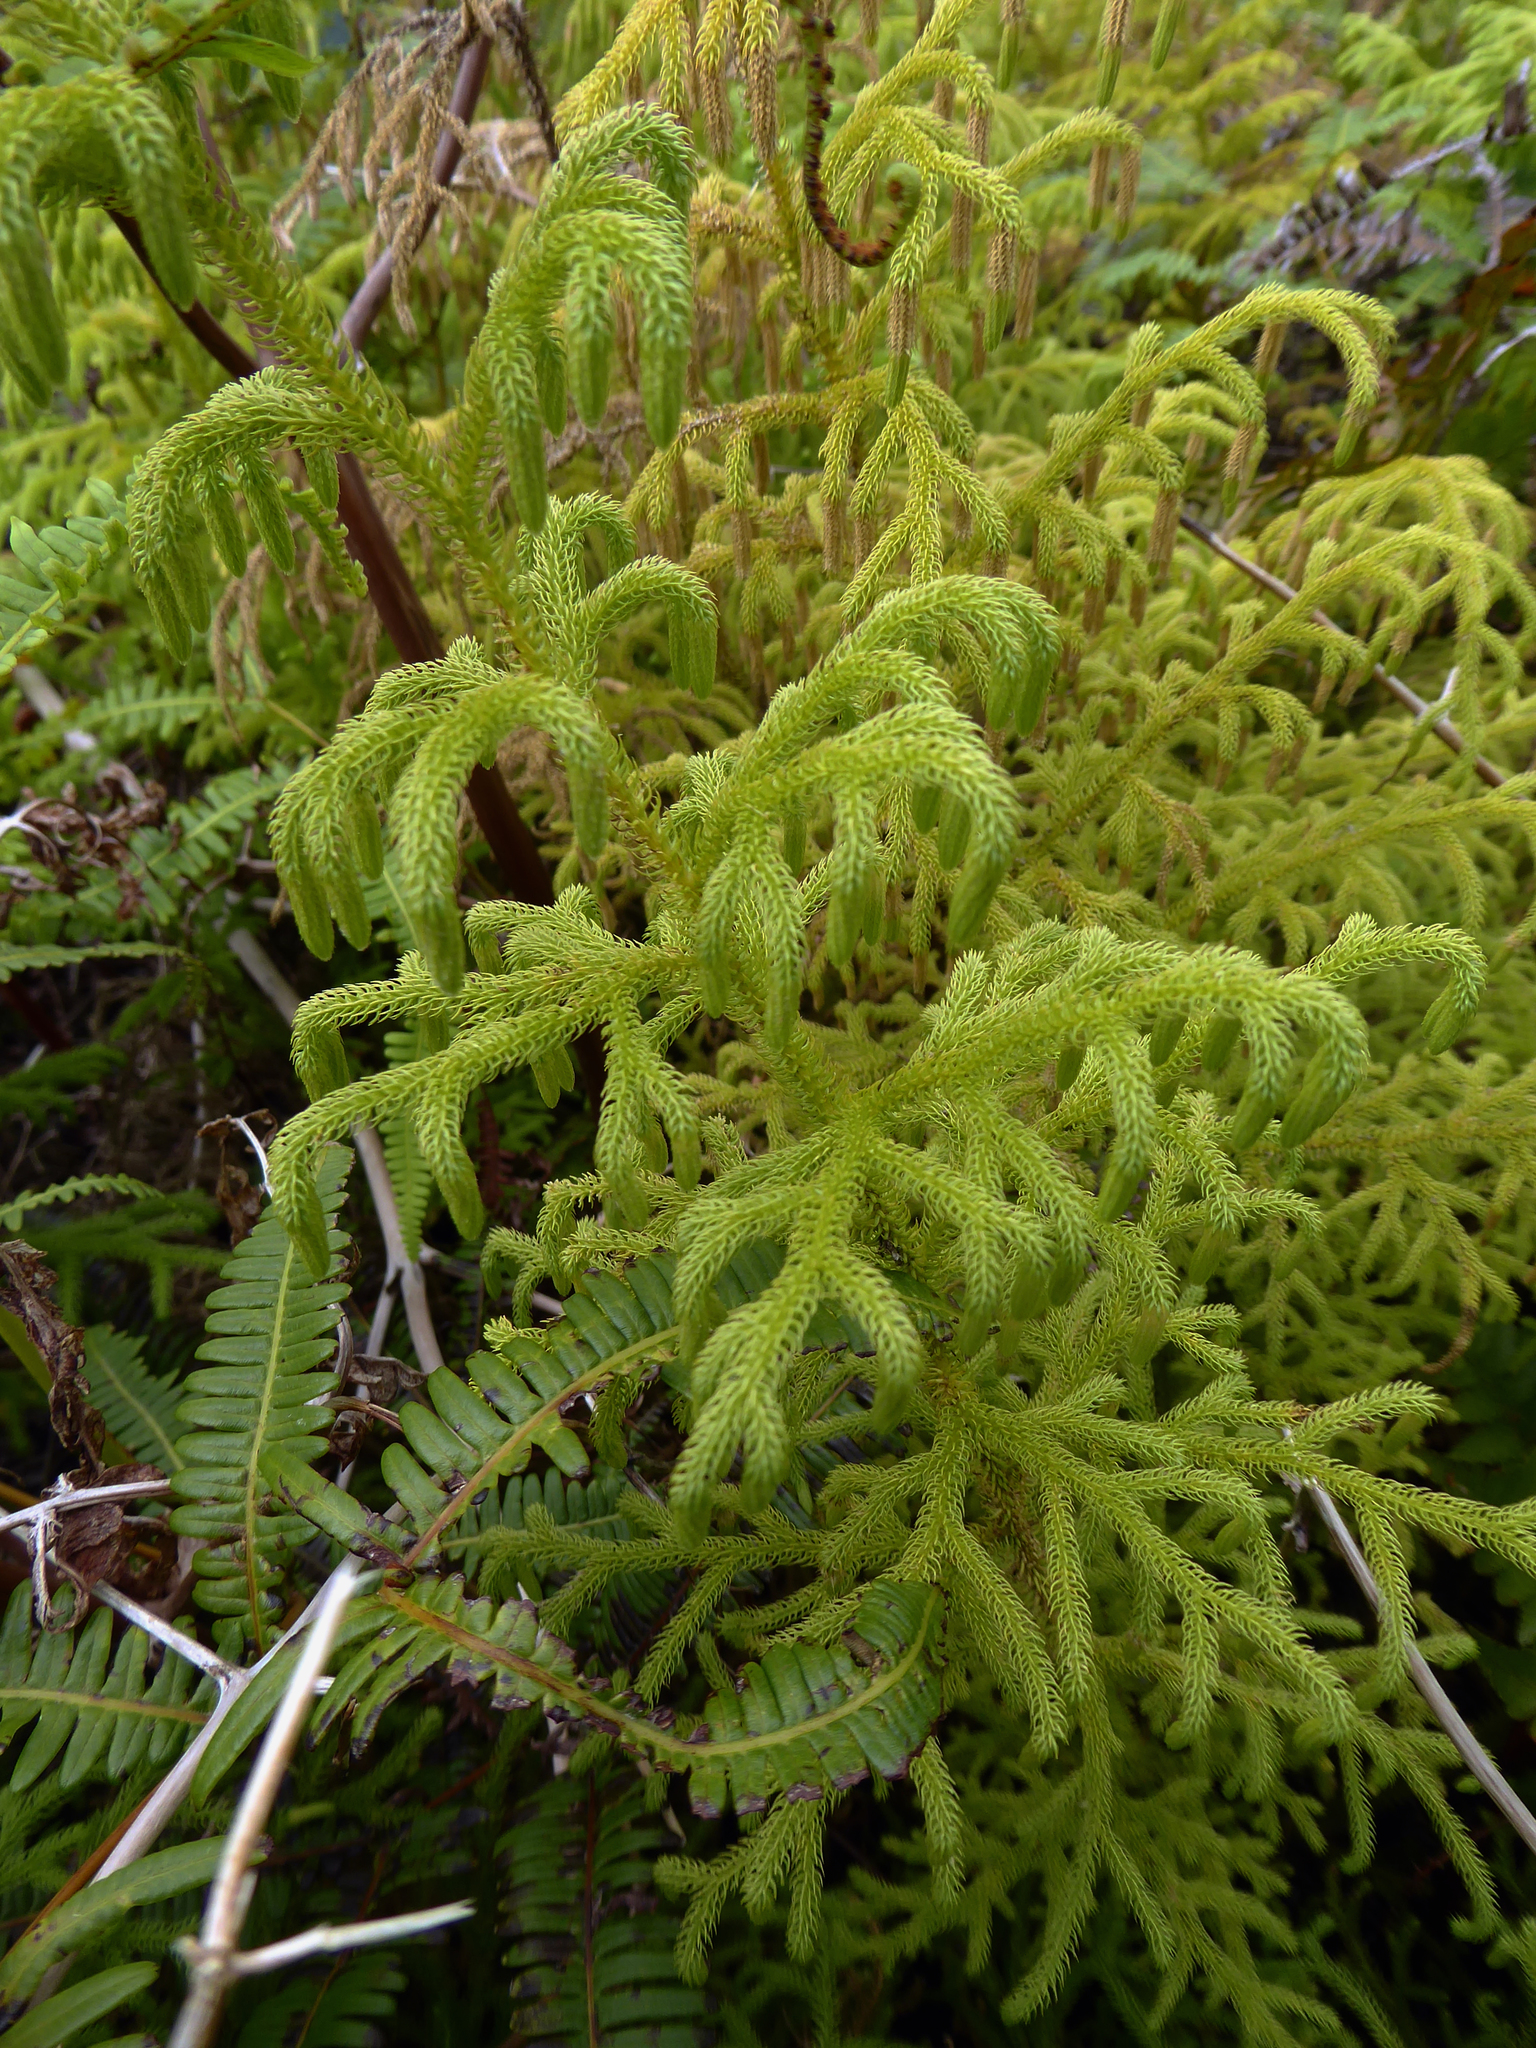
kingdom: Plantae
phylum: Tracheophyta
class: Lycopodiopsida
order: Lycopodiales
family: Lycopodiaceae
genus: Palhinhaea
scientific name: Palhinhaea cernua
